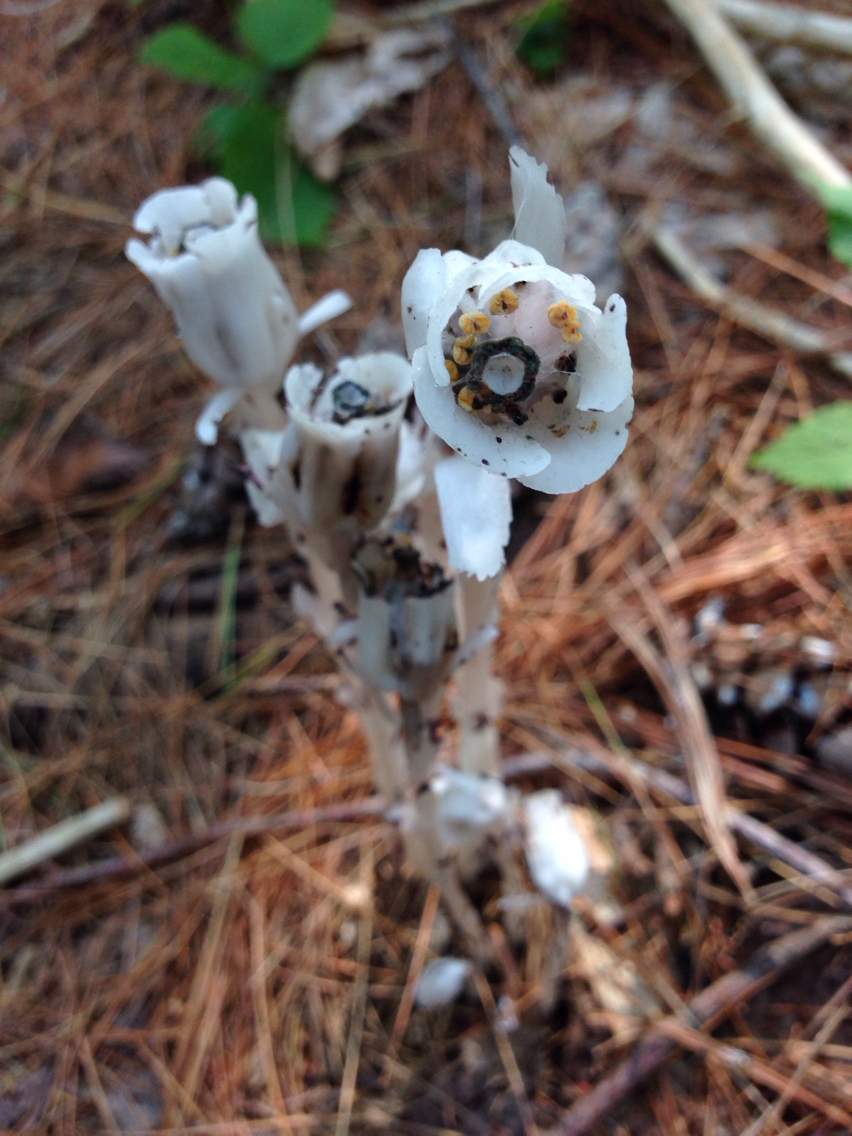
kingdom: Plantae
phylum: Tracheophyta
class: Magnoliopsida
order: Ericales
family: Ericaceae
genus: Monotropa
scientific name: Monotropa uniflora
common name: Convulsion root
